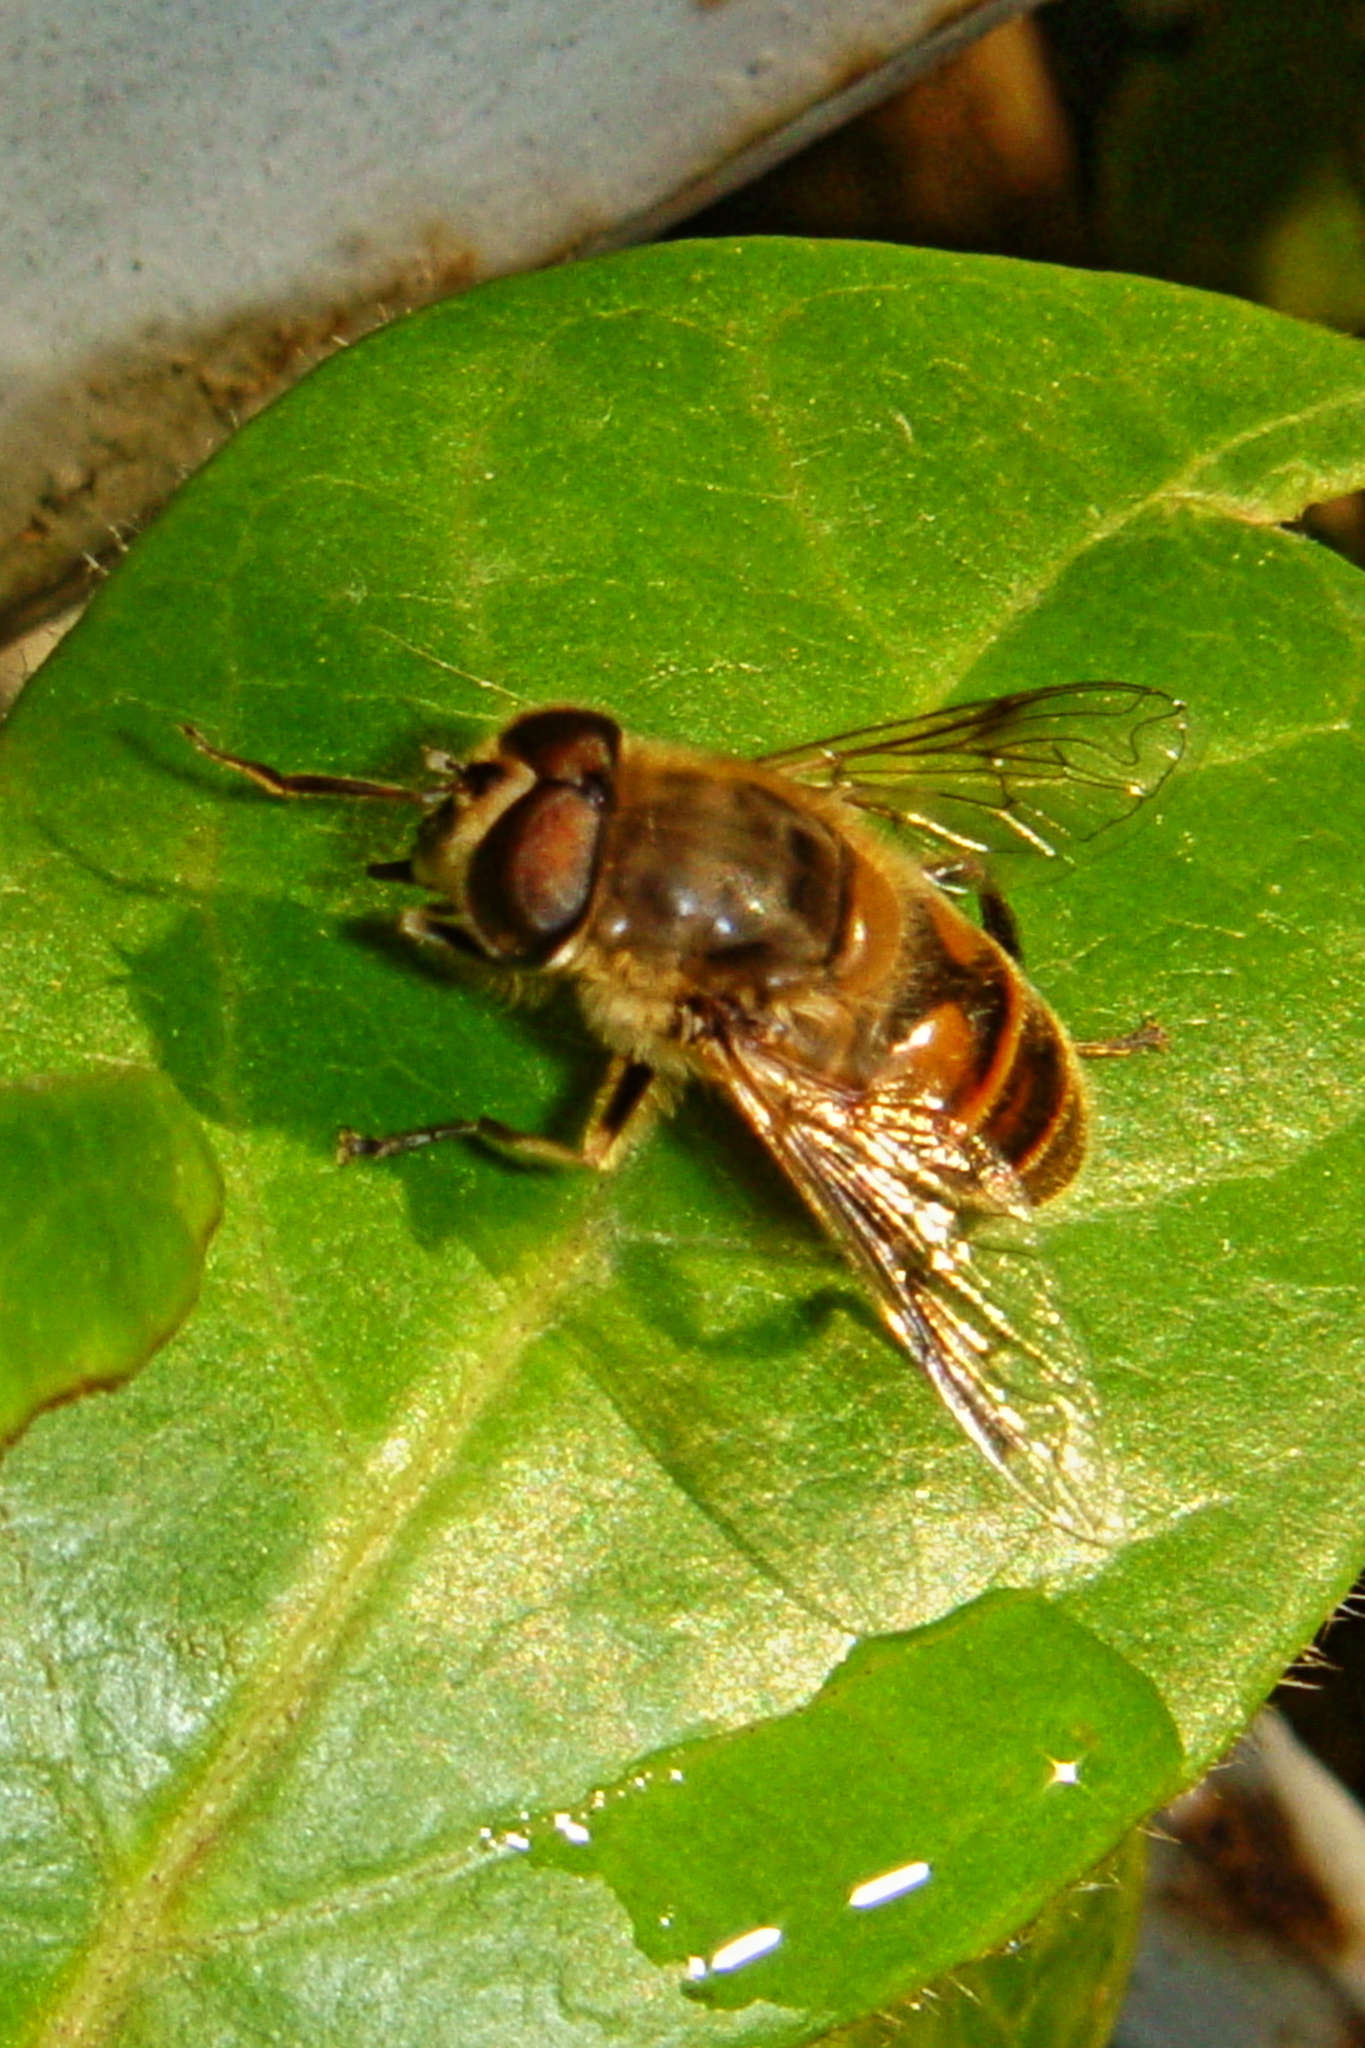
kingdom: Animalia
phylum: Arthropoda
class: Insecta
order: Diptera
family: Syrphidae
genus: Eristalis
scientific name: Eristalis tenax
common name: Drone fly
